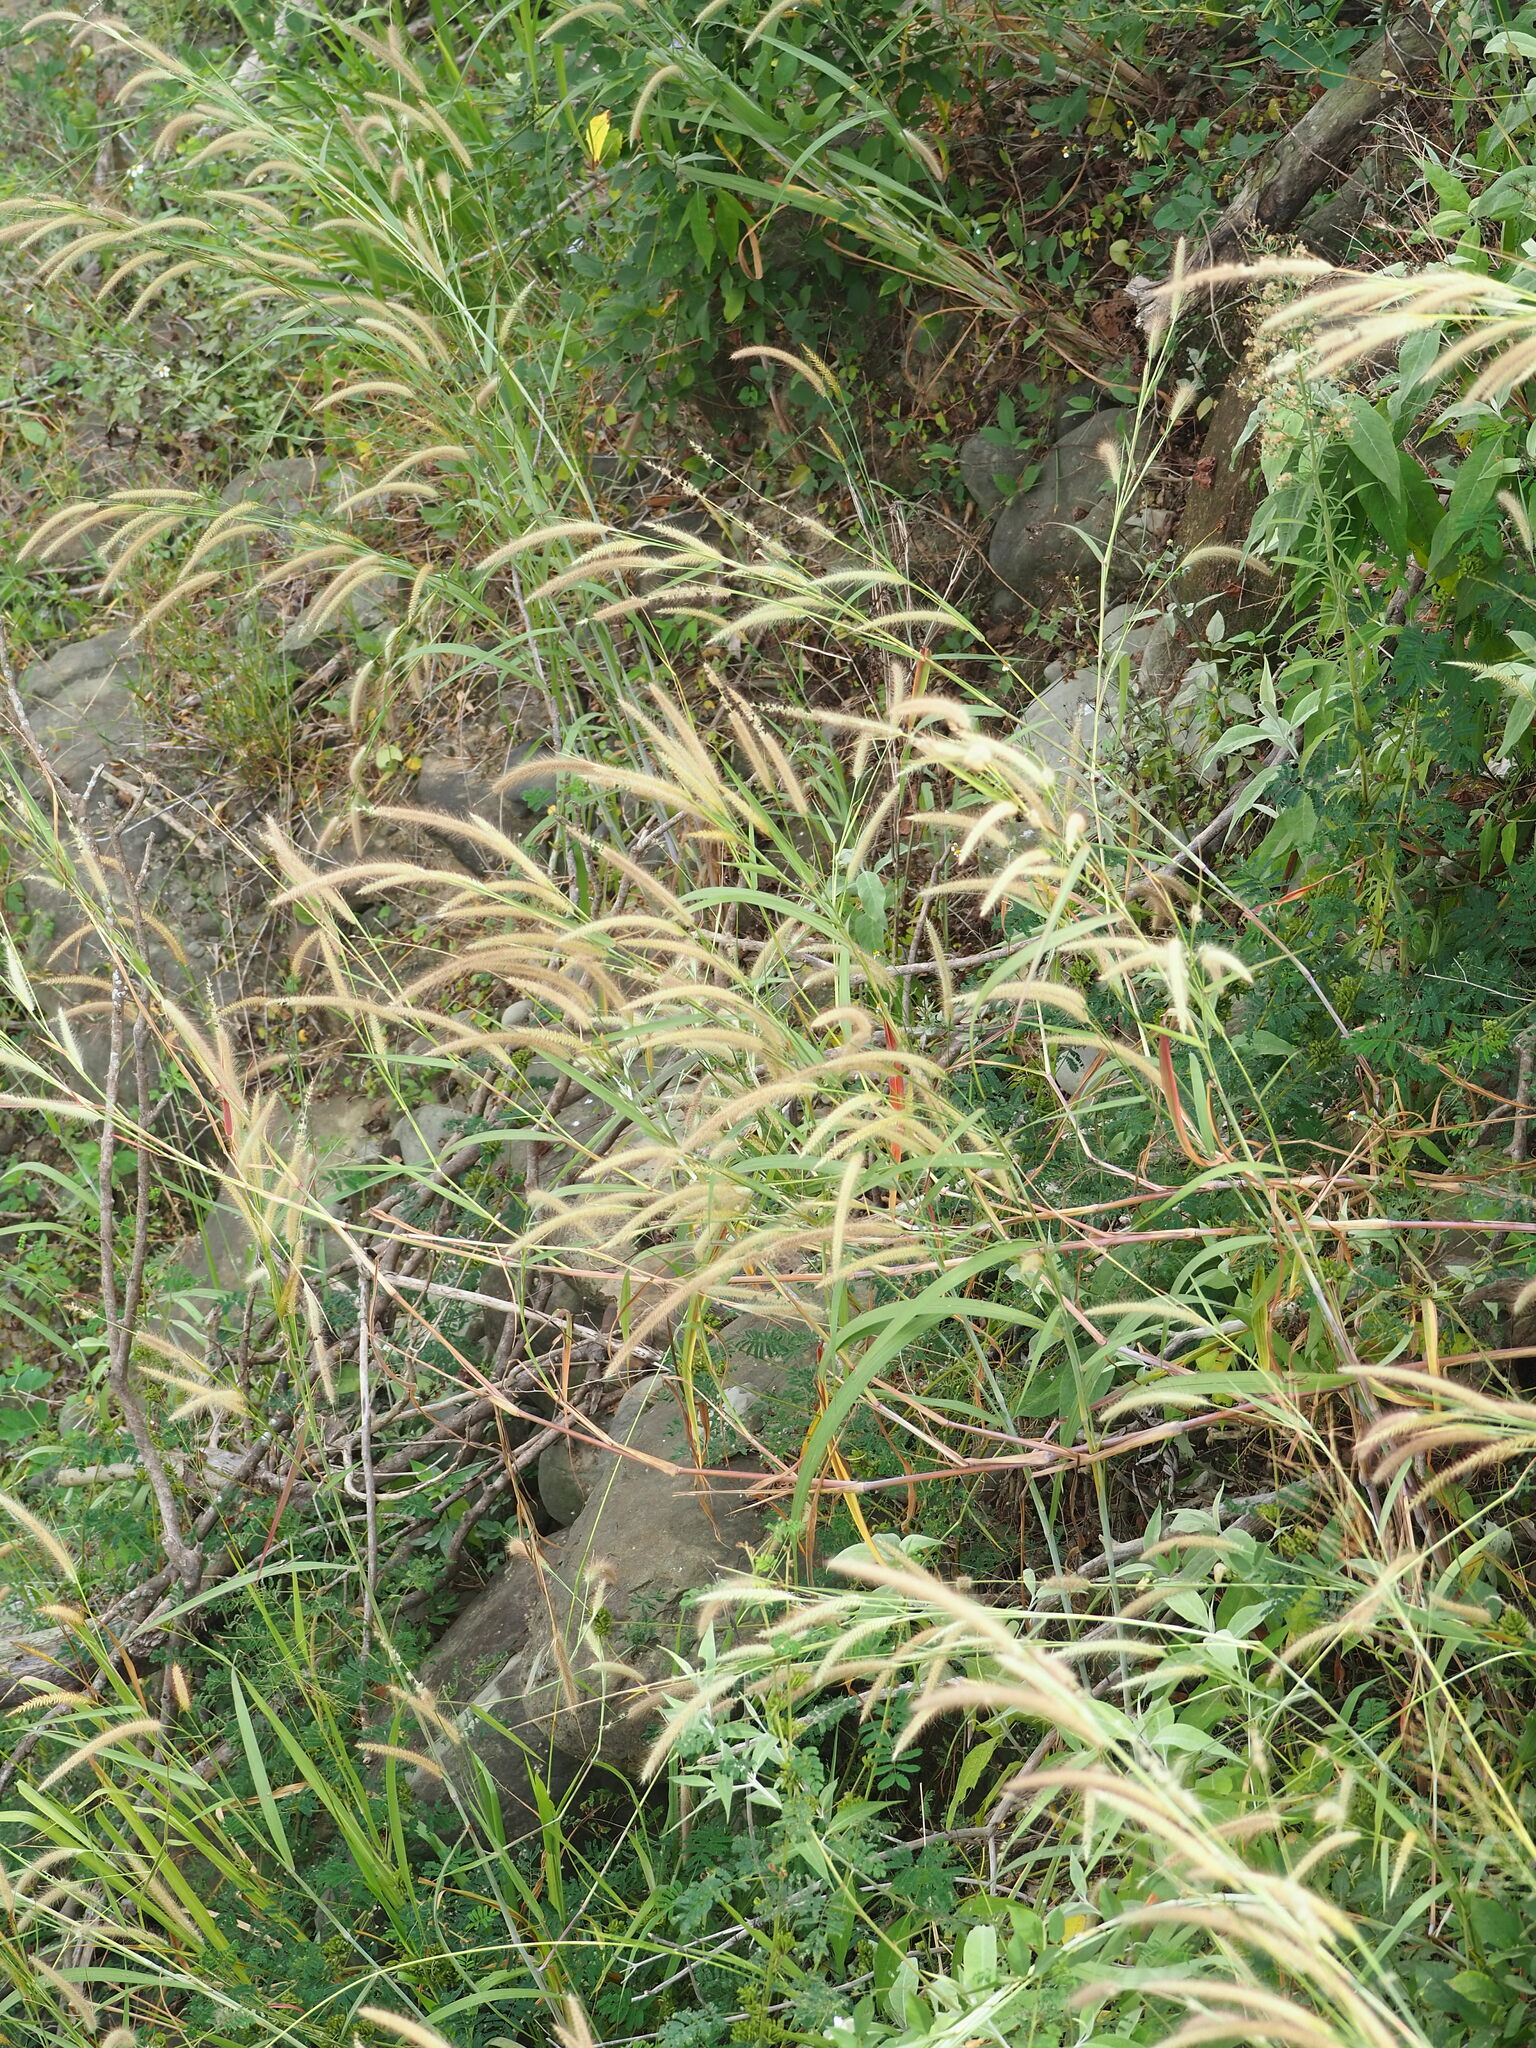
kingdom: Plantae
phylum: Tracheophyta
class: Liliopsida
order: Poales
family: Poaceae
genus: Cenchrus
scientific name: Cenchrus setosus
